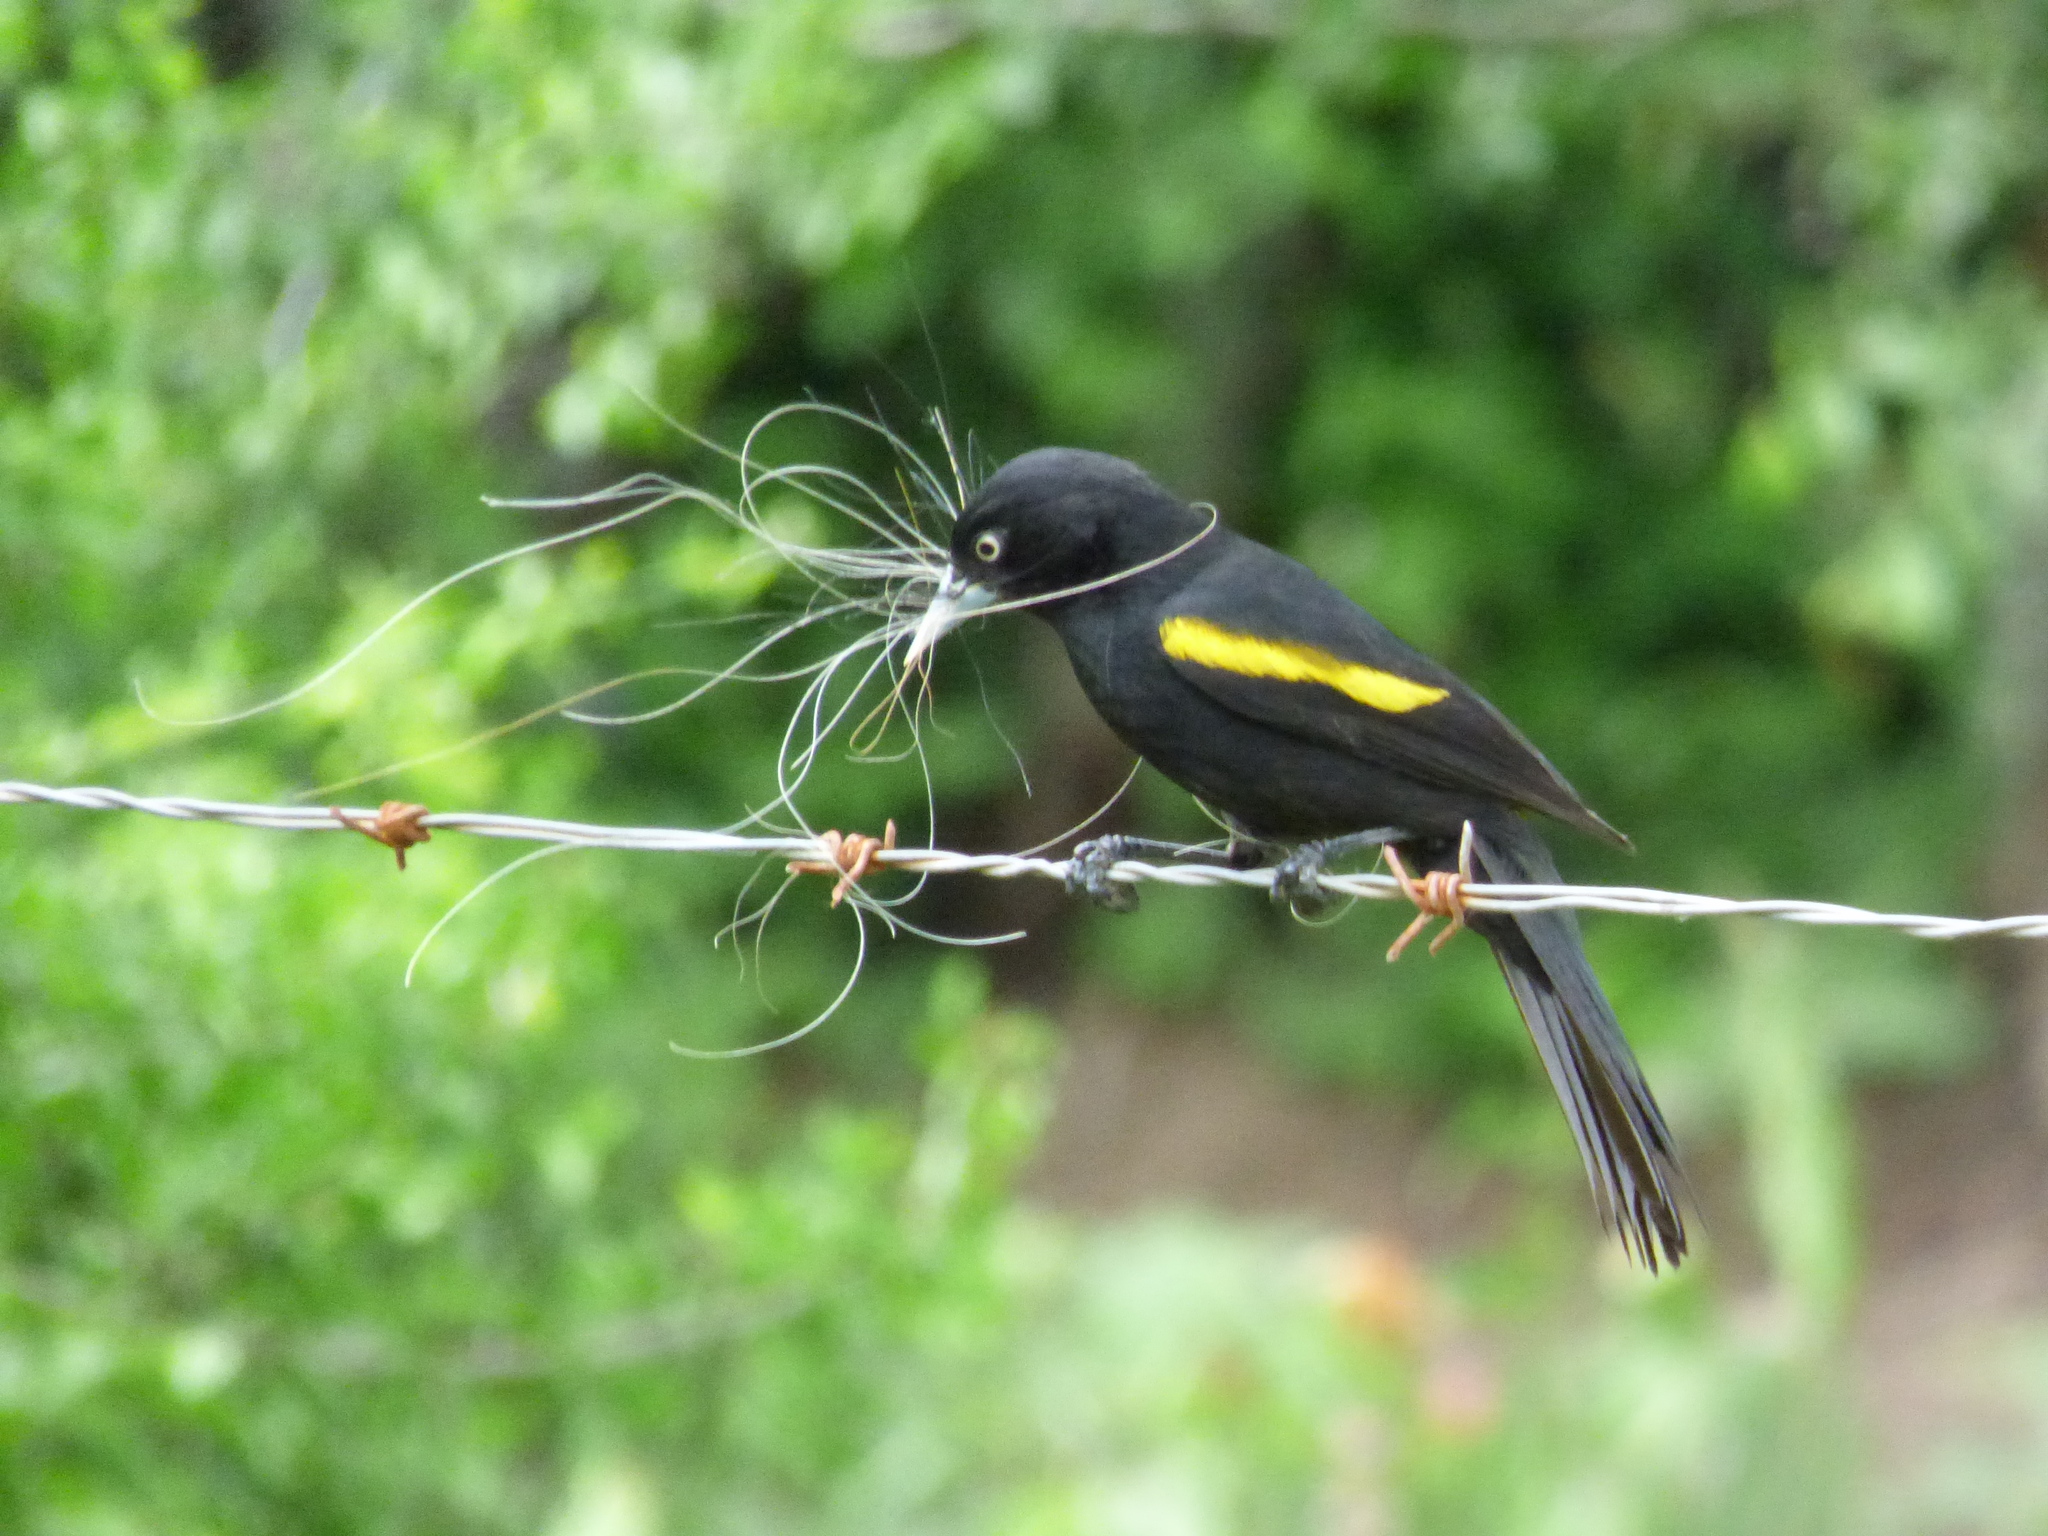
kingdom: Animalia
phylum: Chordata
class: Aves
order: Passeriformes
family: Icteridae
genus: Cacicus
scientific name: Cacicus chrysopterus
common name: Golden-winged cacique
